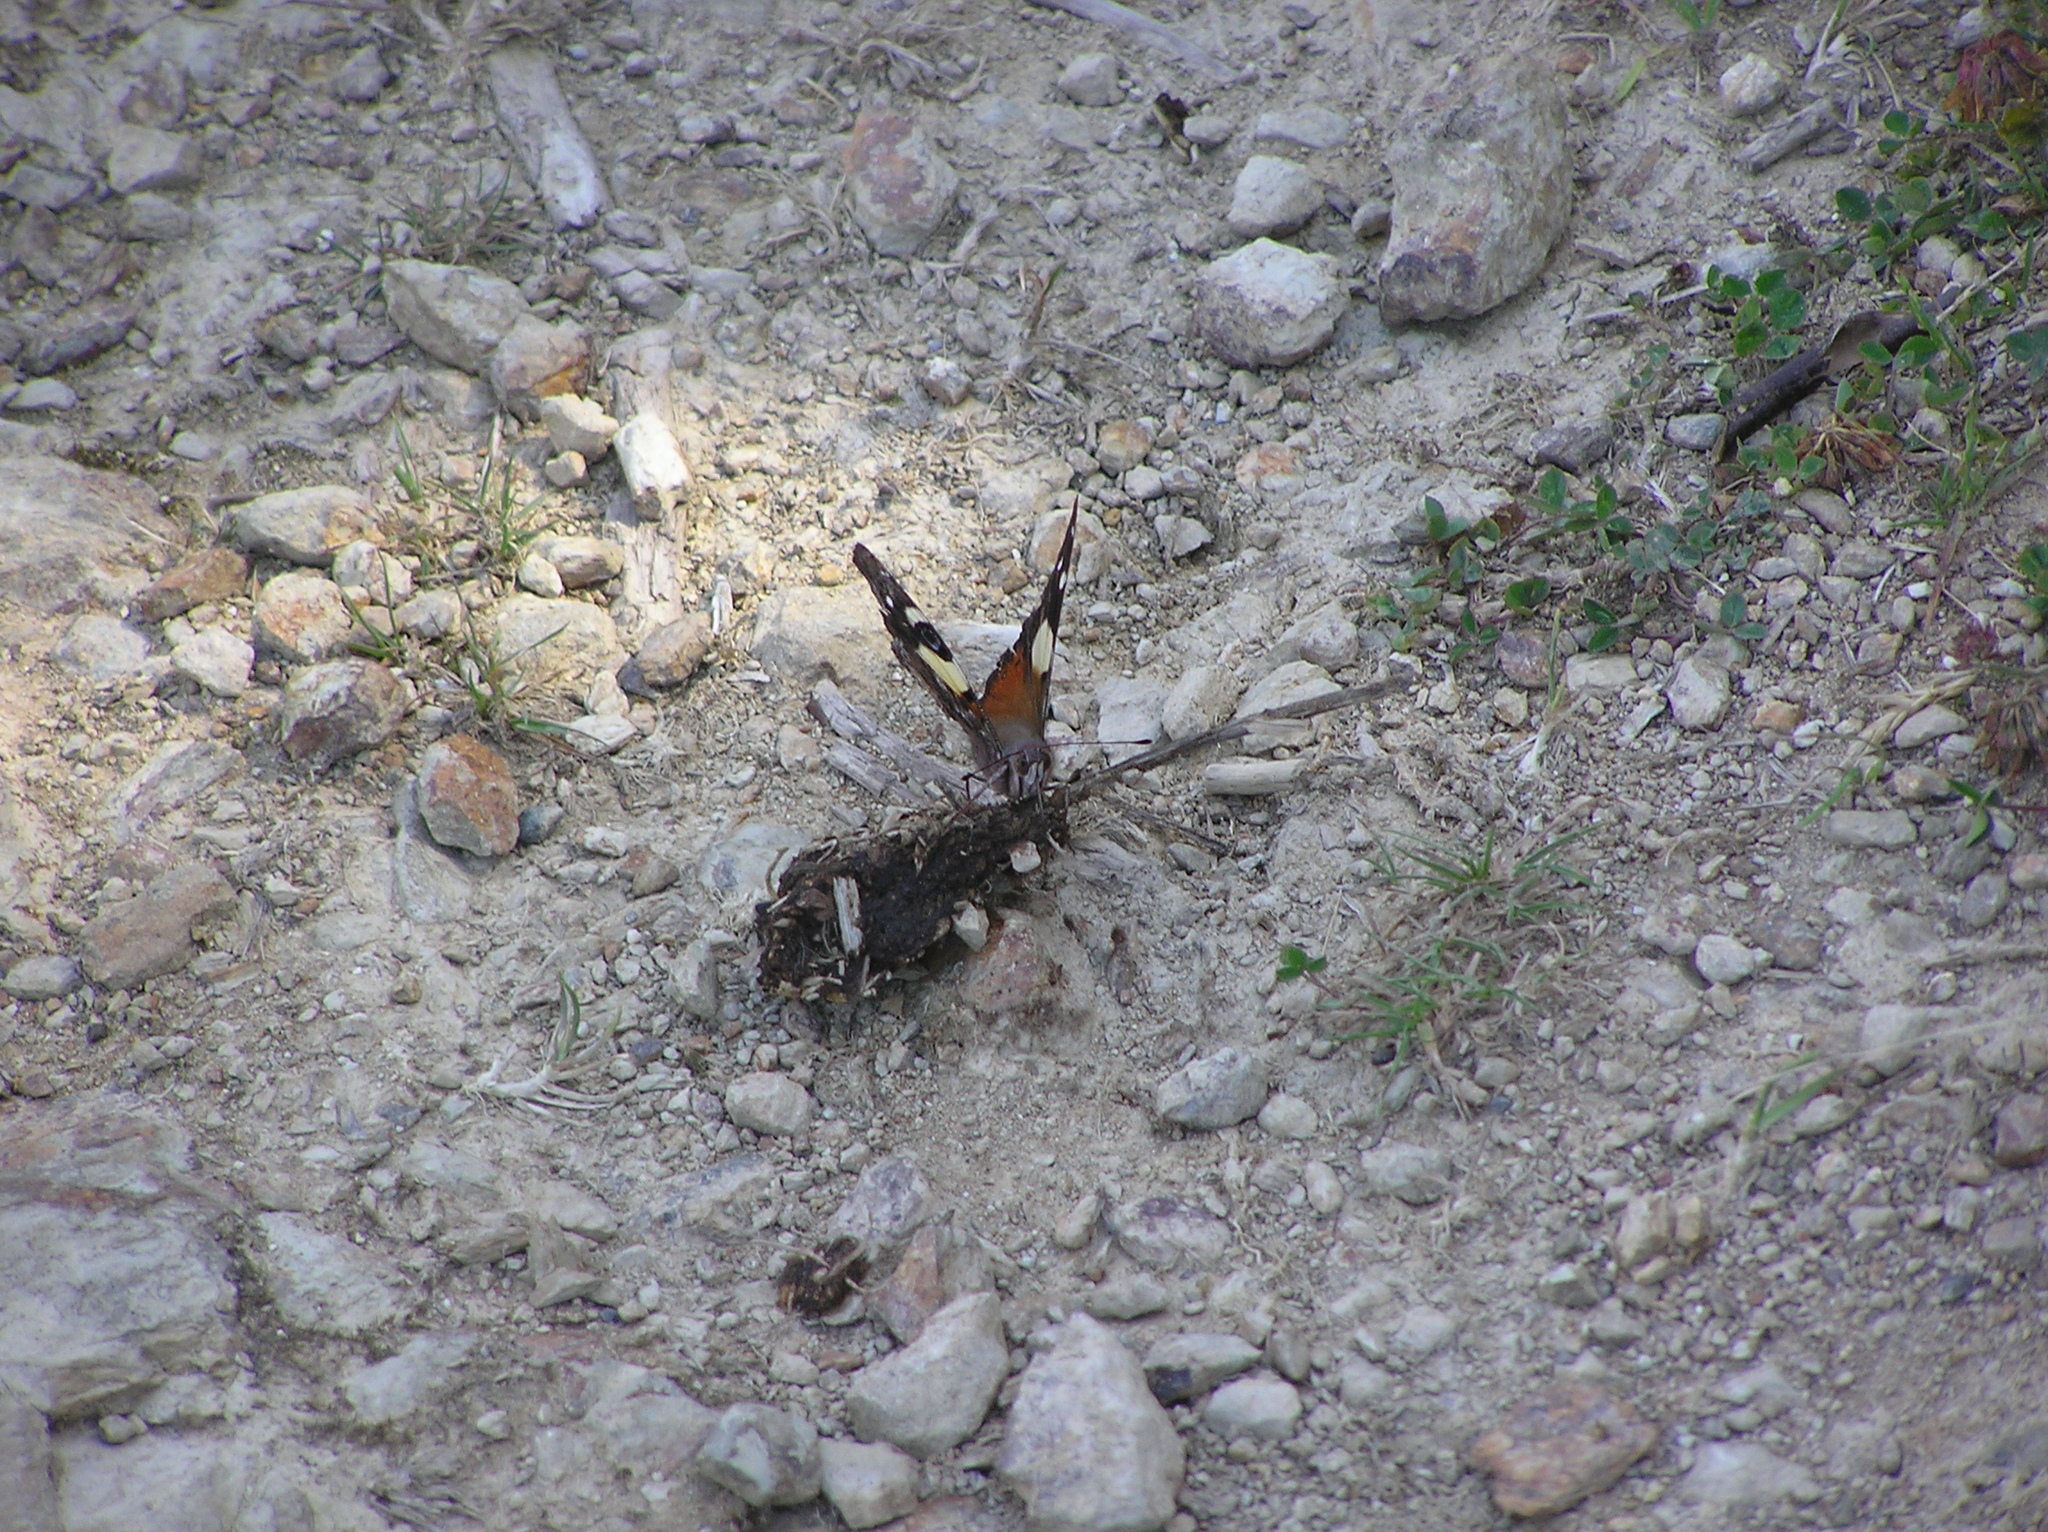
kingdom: Animalia
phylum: Arthropoda
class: Insecta
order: Lepidoptera
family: Nymphalidae
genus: Vanessa
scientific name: Vanessa itea
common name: Yellow admiral
